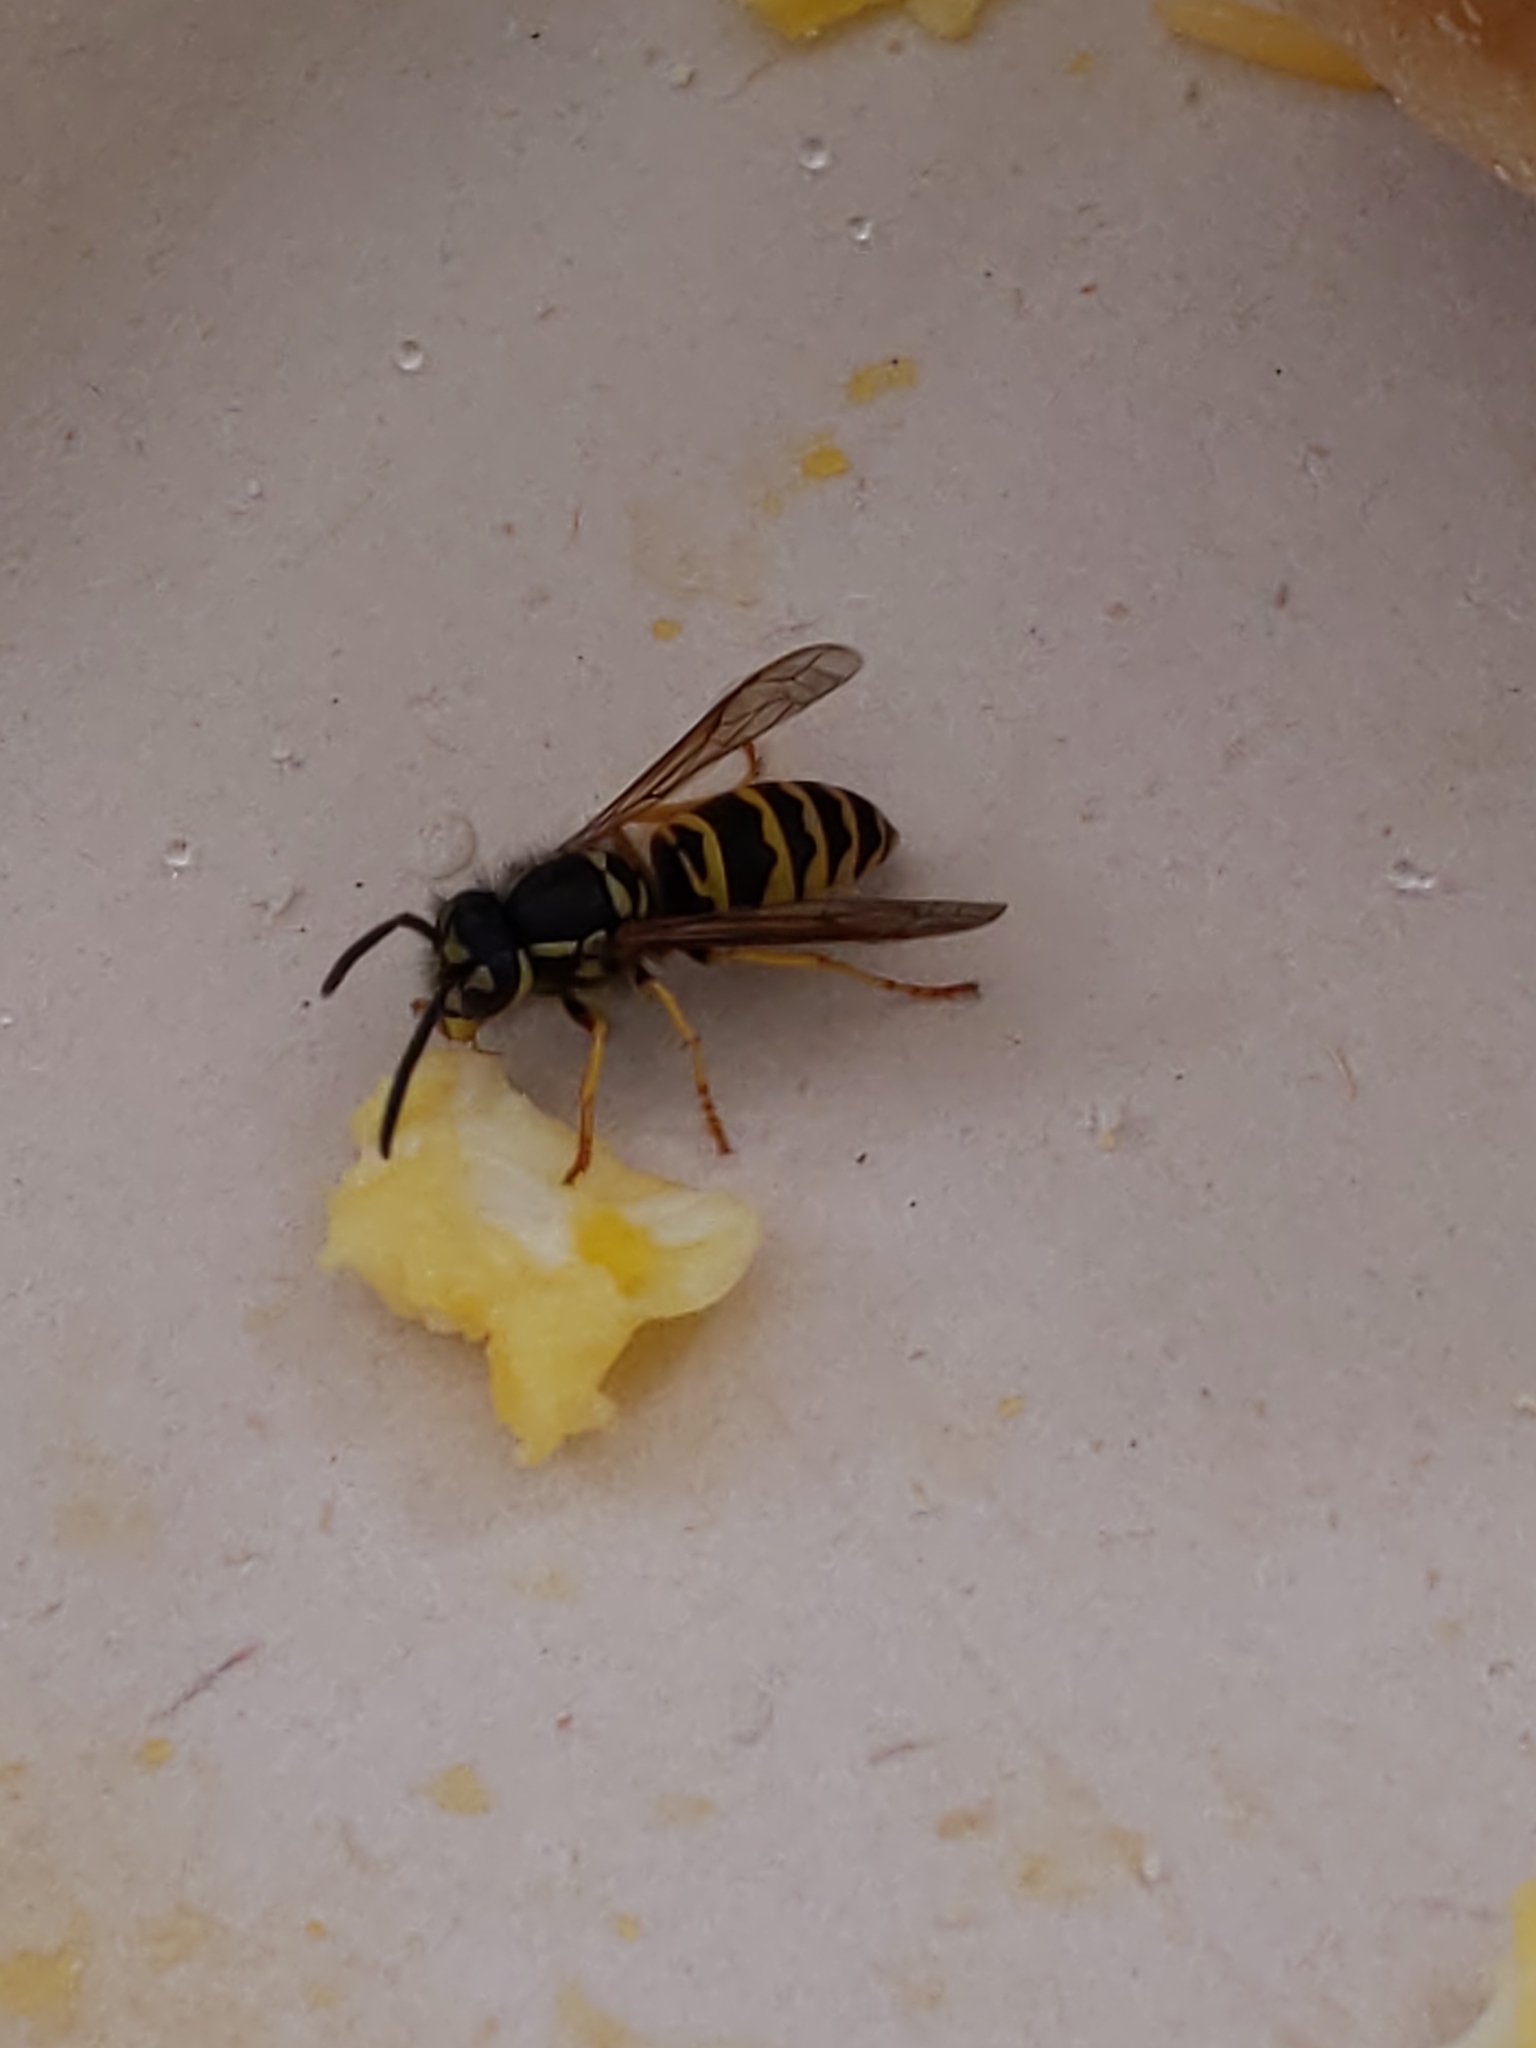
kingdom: Animalia
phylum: Arthropoda
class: Insecta
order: Hymenoptera
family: Vespidae
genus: Vespula
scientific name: Vespula maculifrons
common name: Eastern yellowjacket
